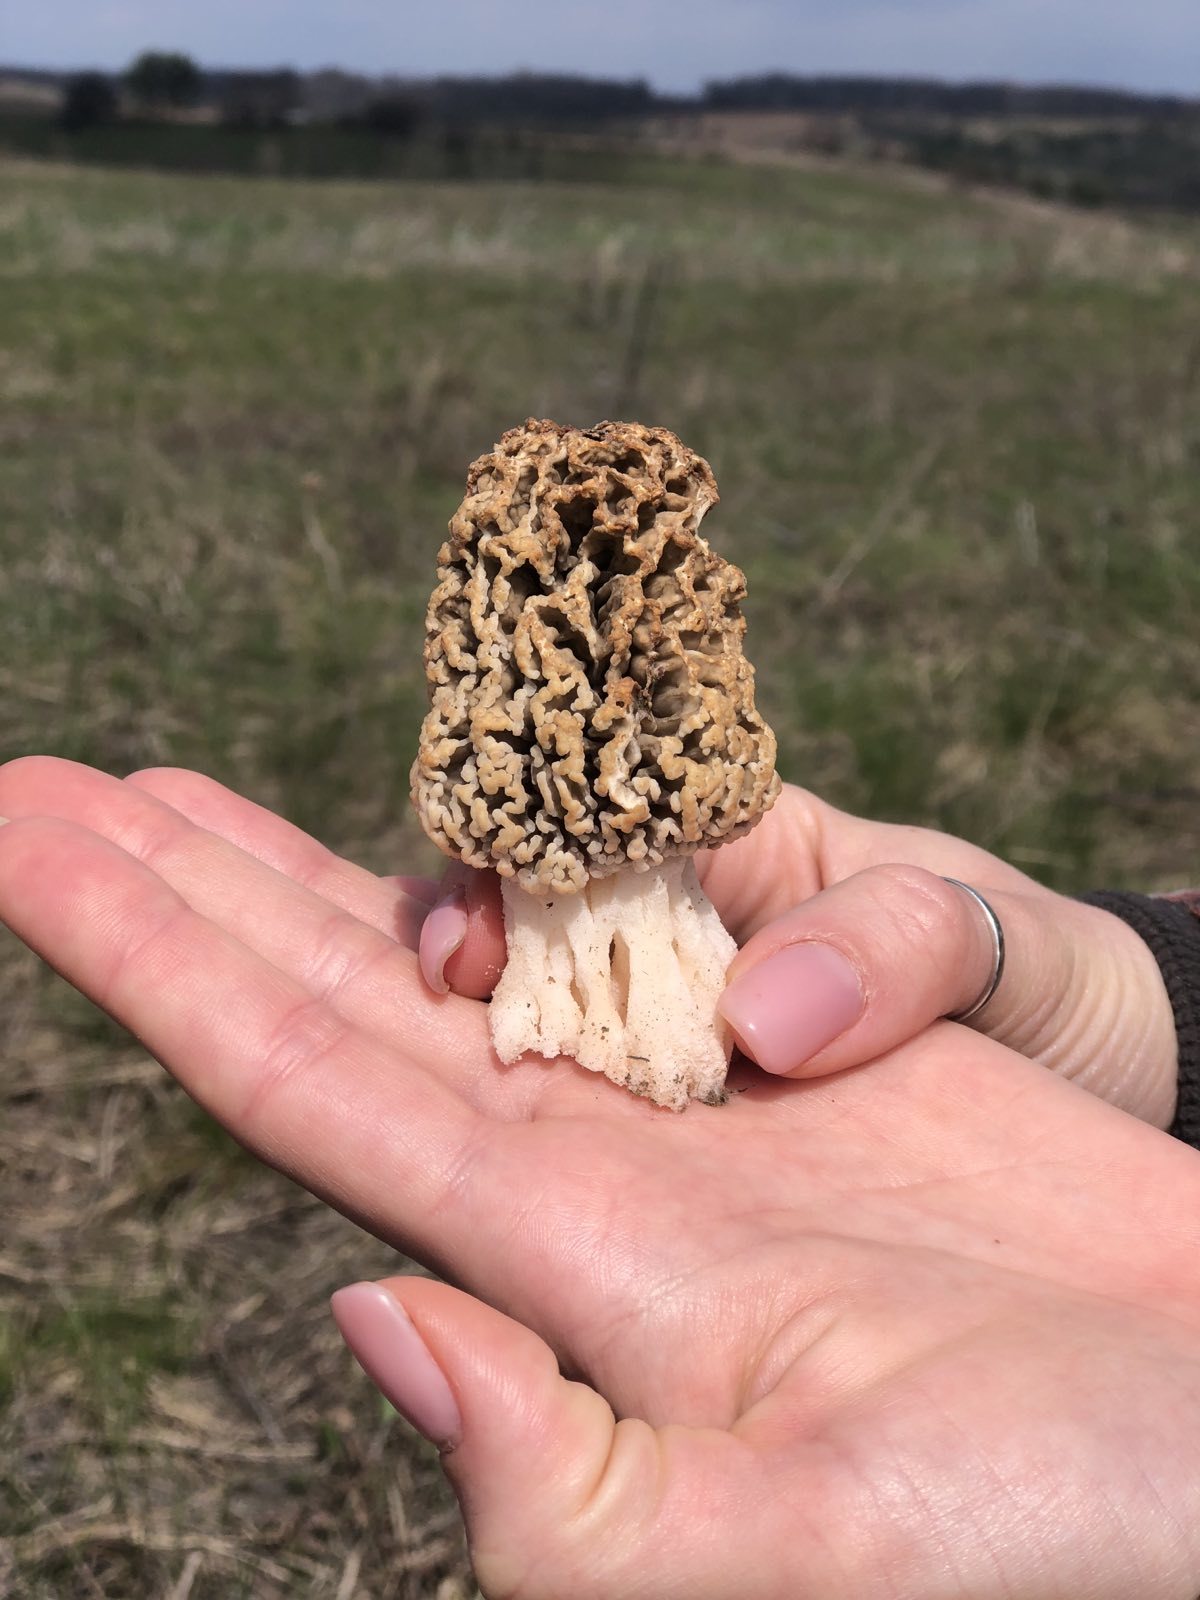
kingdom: Fungi
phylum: Ascomycota
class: Pezizomycetes
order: Pezizales
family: Morchellaceae
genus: Morchella
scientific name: Morchella steppicola
